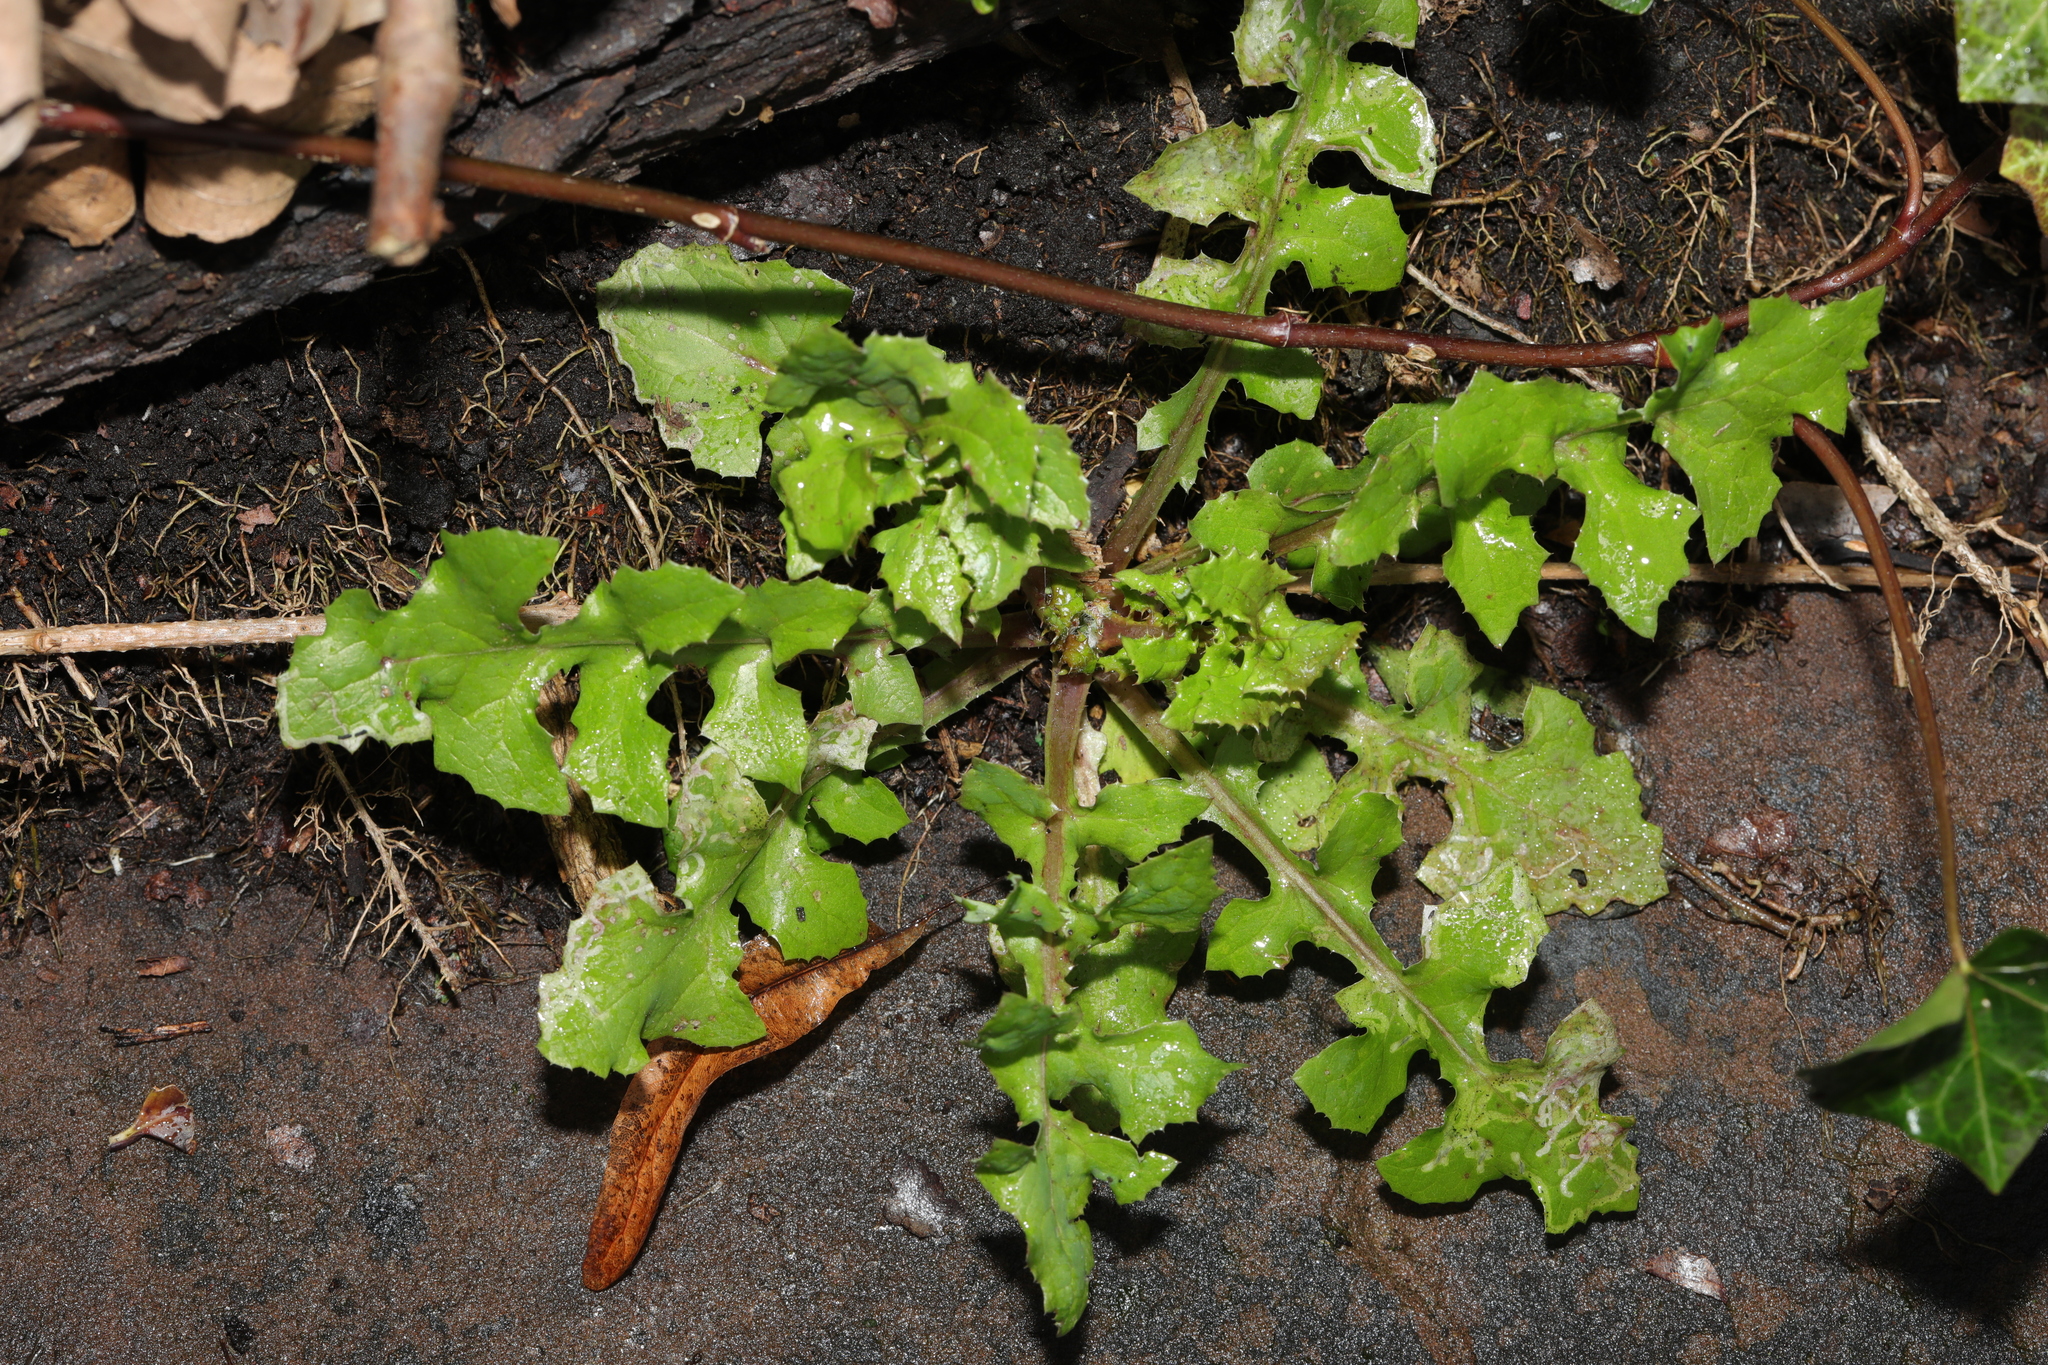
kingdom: Plantae
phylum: Tracheophyta
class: Magnoliopsida
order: Asterales
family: Asteraceae
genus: Sonchus
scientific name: Sonchus oleraceus
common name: Common sowthistle
